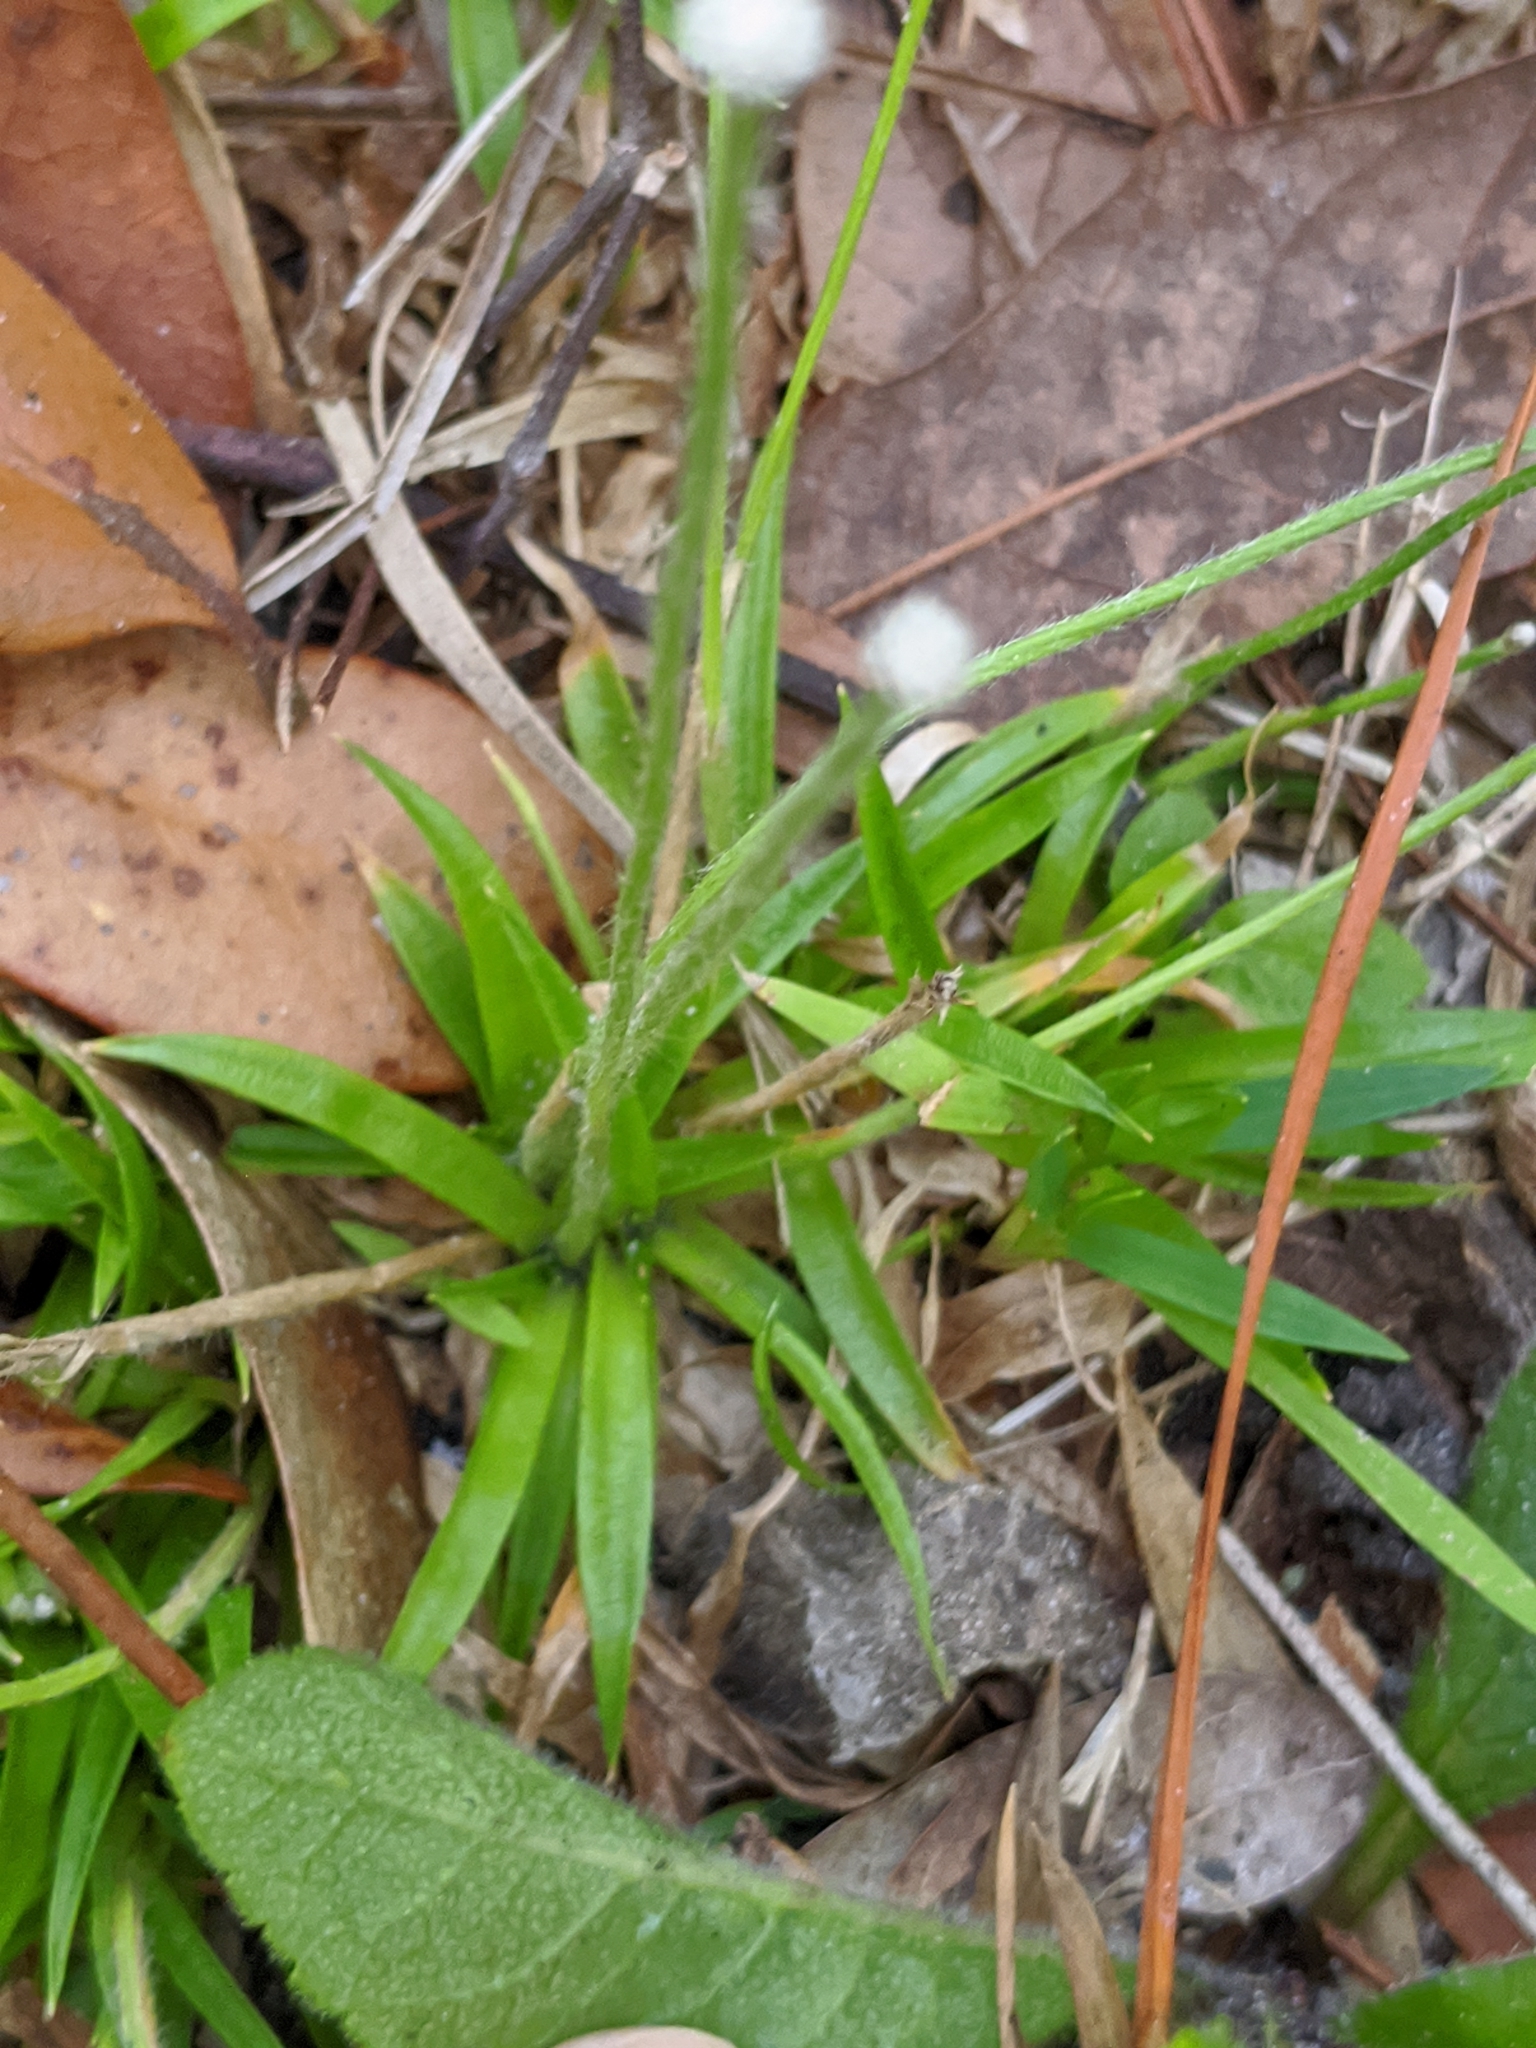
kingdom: Plantae
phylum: Tracheophyta
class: Liliopsida
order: Poales
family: Eriocaulaceae
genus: Paepalanthus
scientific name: Paepalanthus anceps
